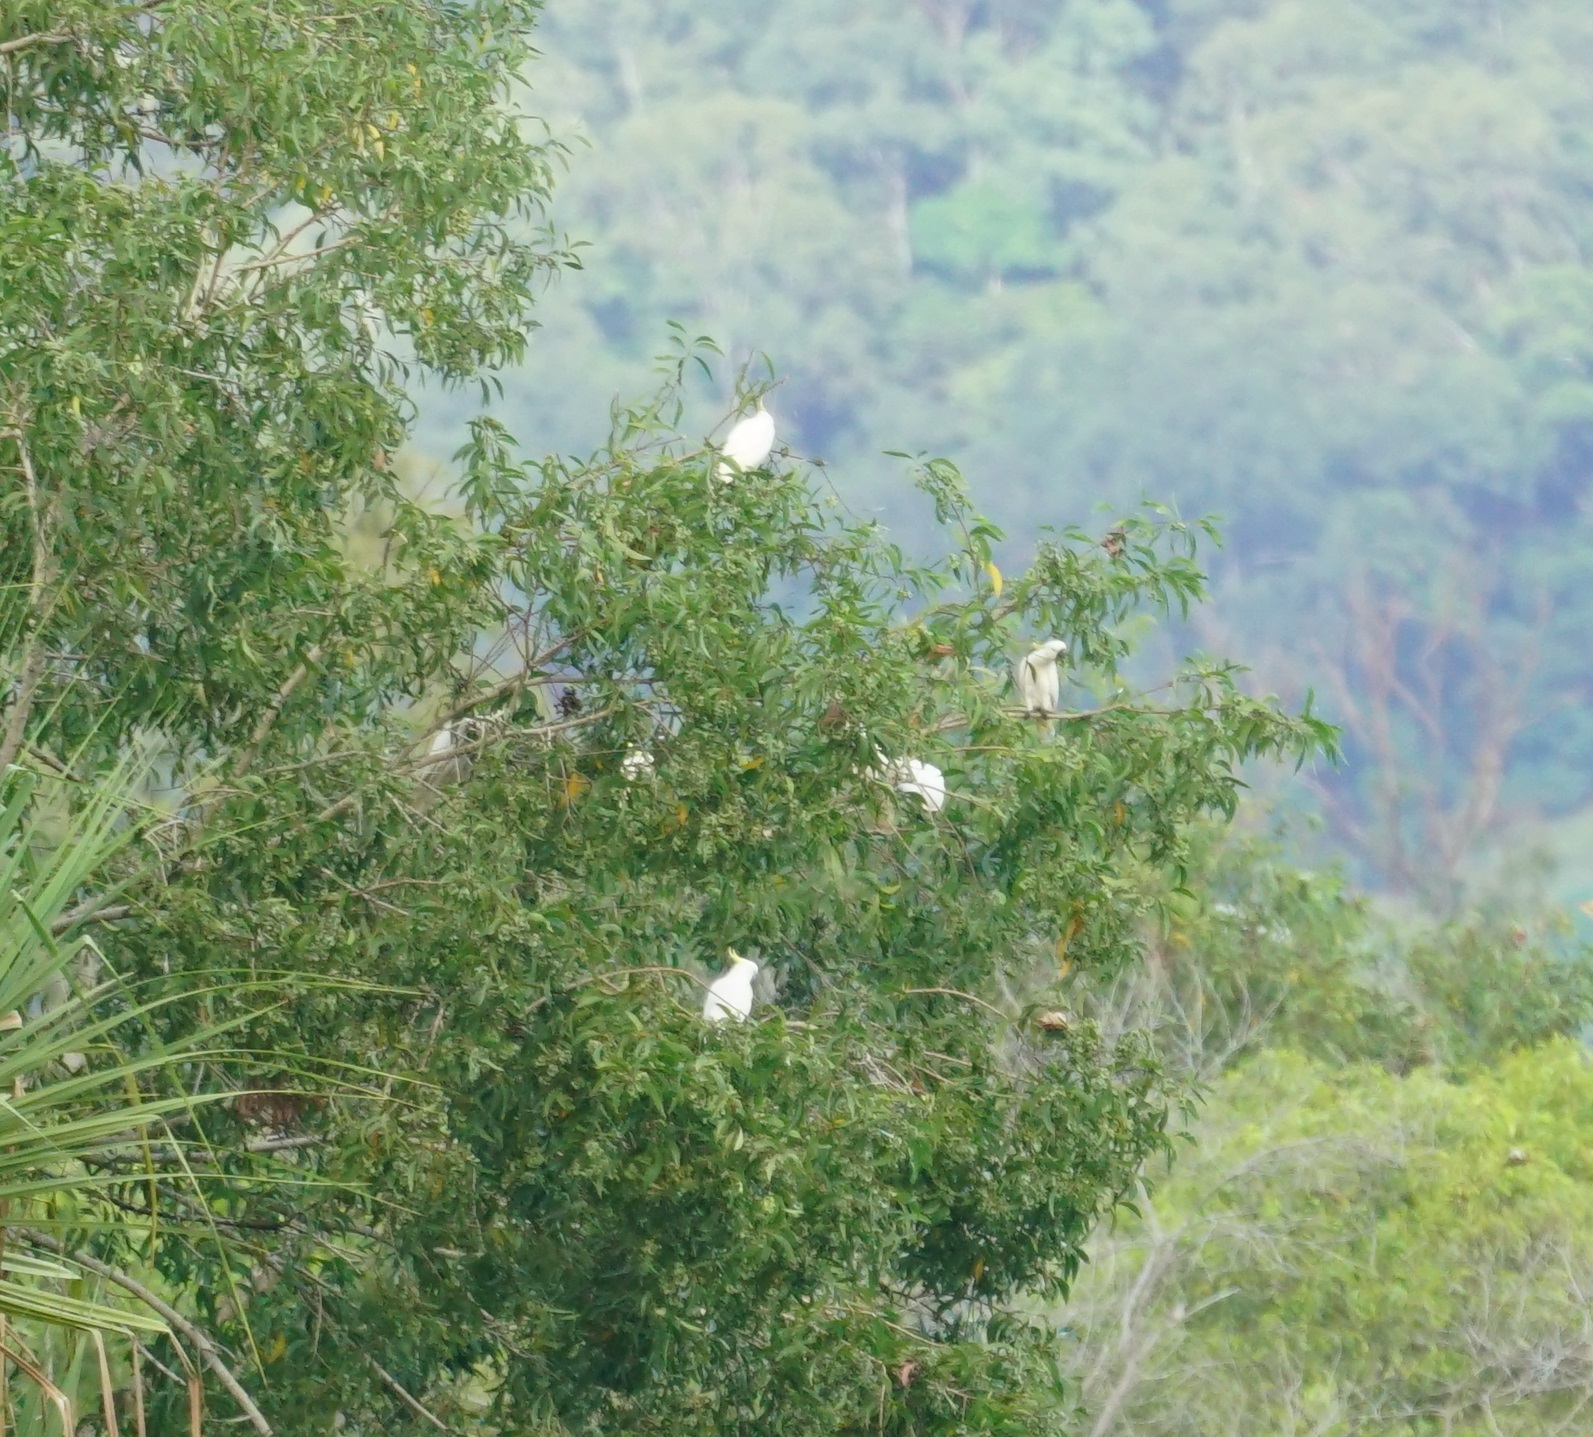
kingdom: Animalia
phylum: Chordata
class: Aves
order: Psittaciformes
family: Psittacidae
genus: Cacatua
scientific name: Cacatua galerita
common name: Sulphur-crested cockatoo
